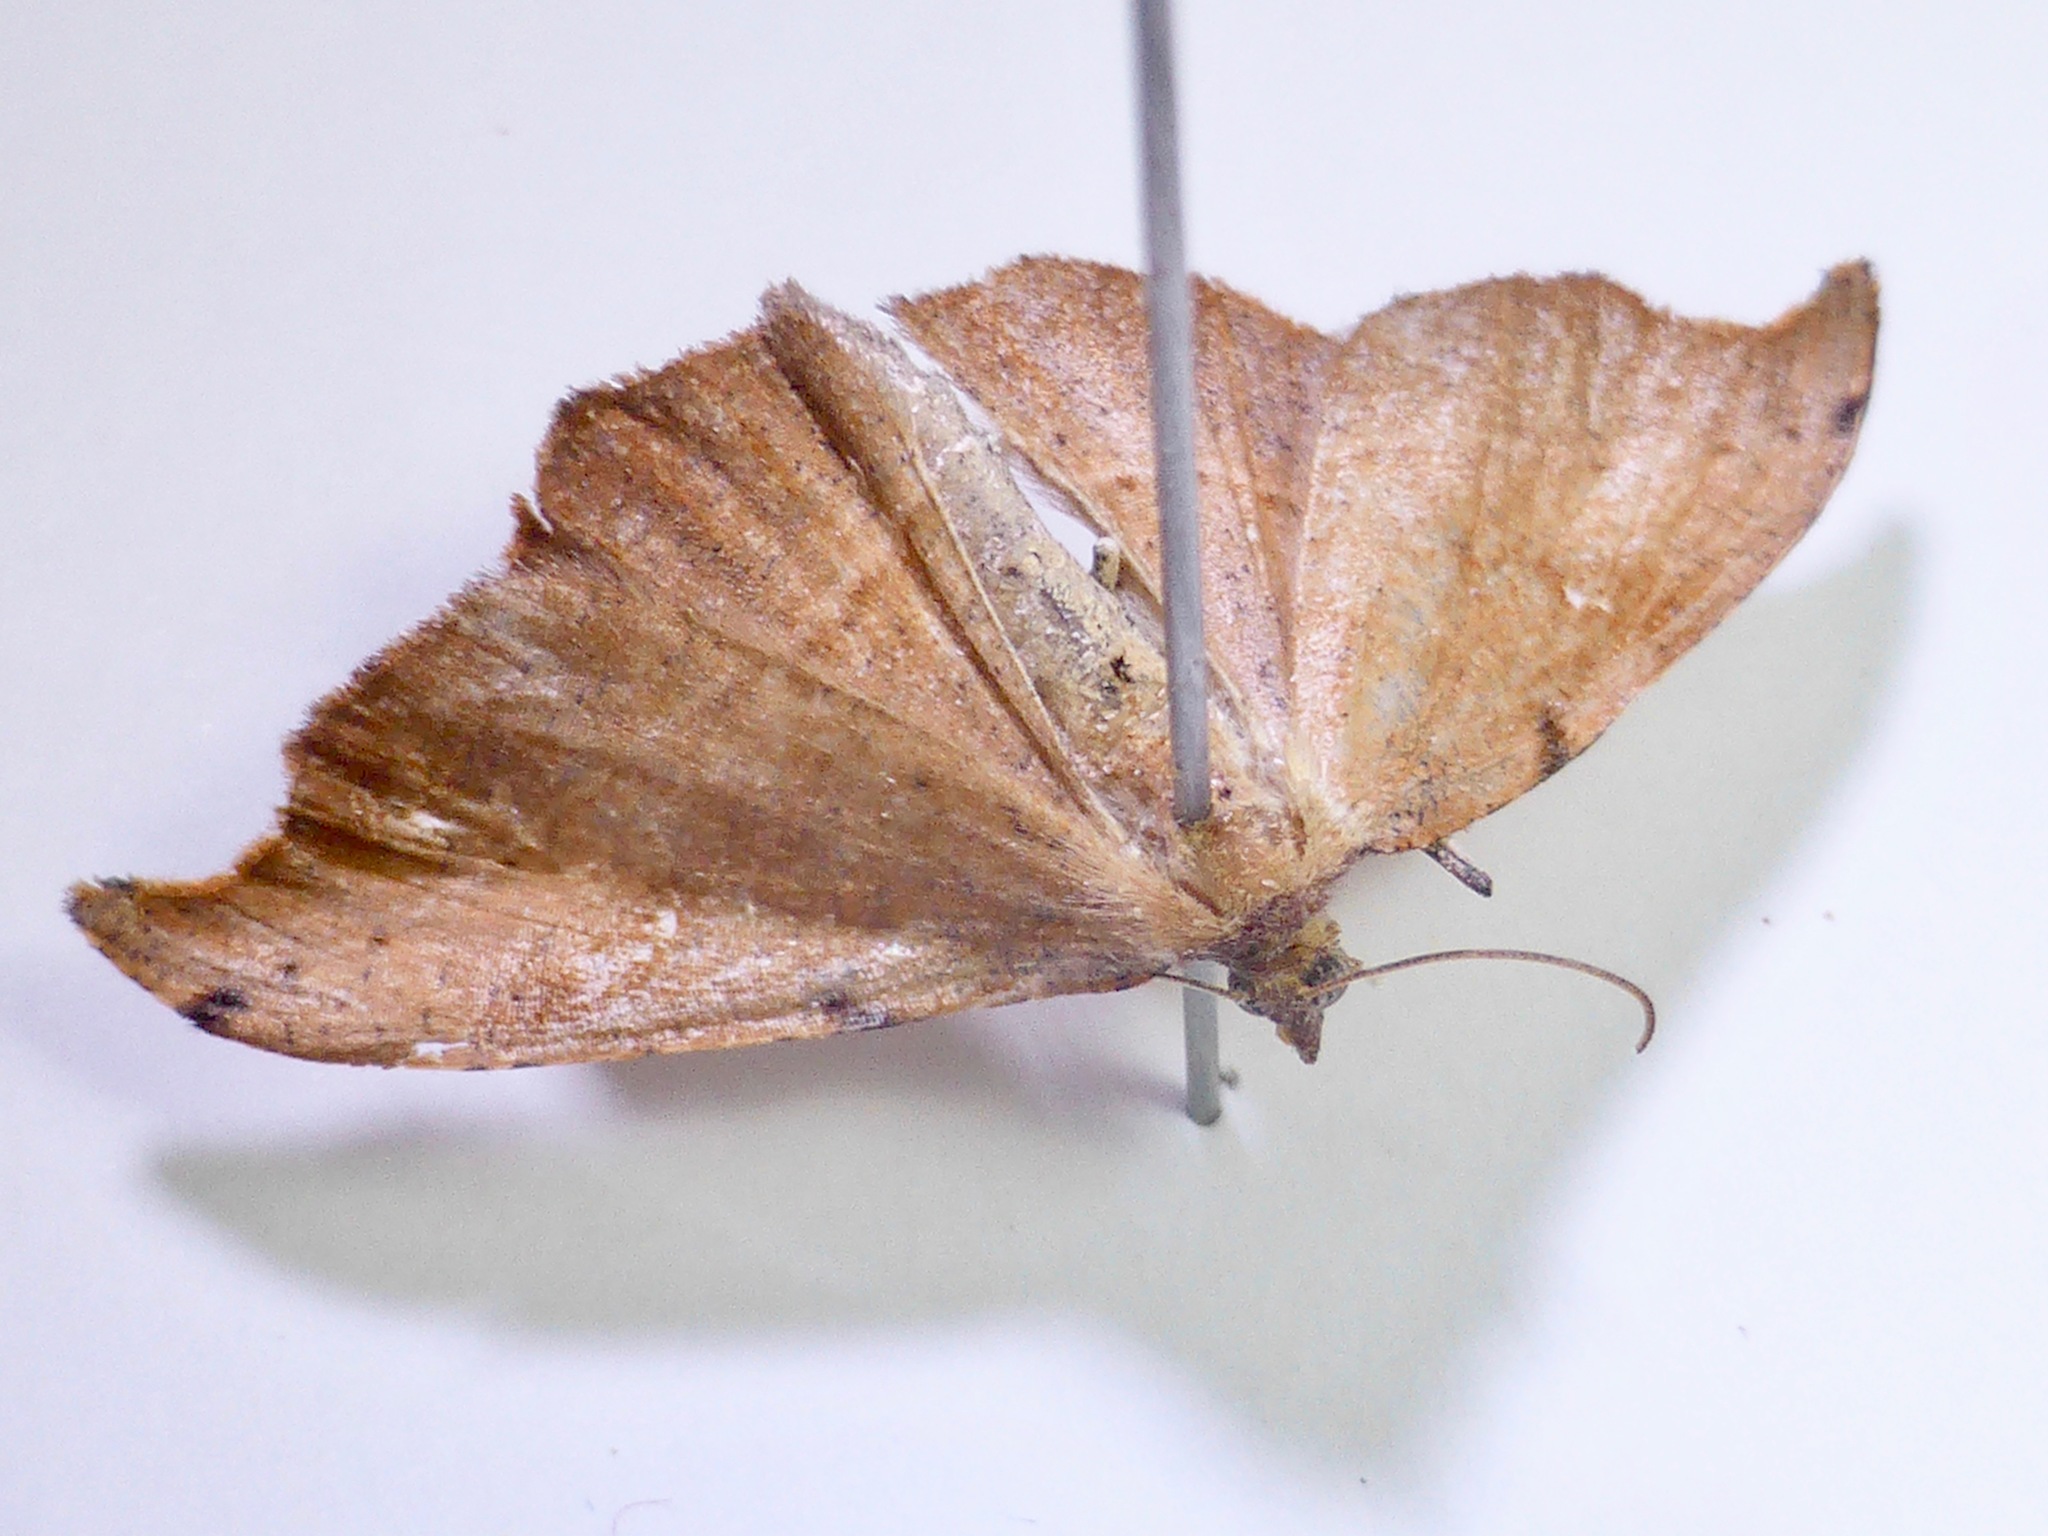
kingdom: Animalia
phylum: Arthropoda
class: Insecta
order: Lepidoptera
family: Geometridae
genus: Sarisa
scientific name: Sarisa muriferata
